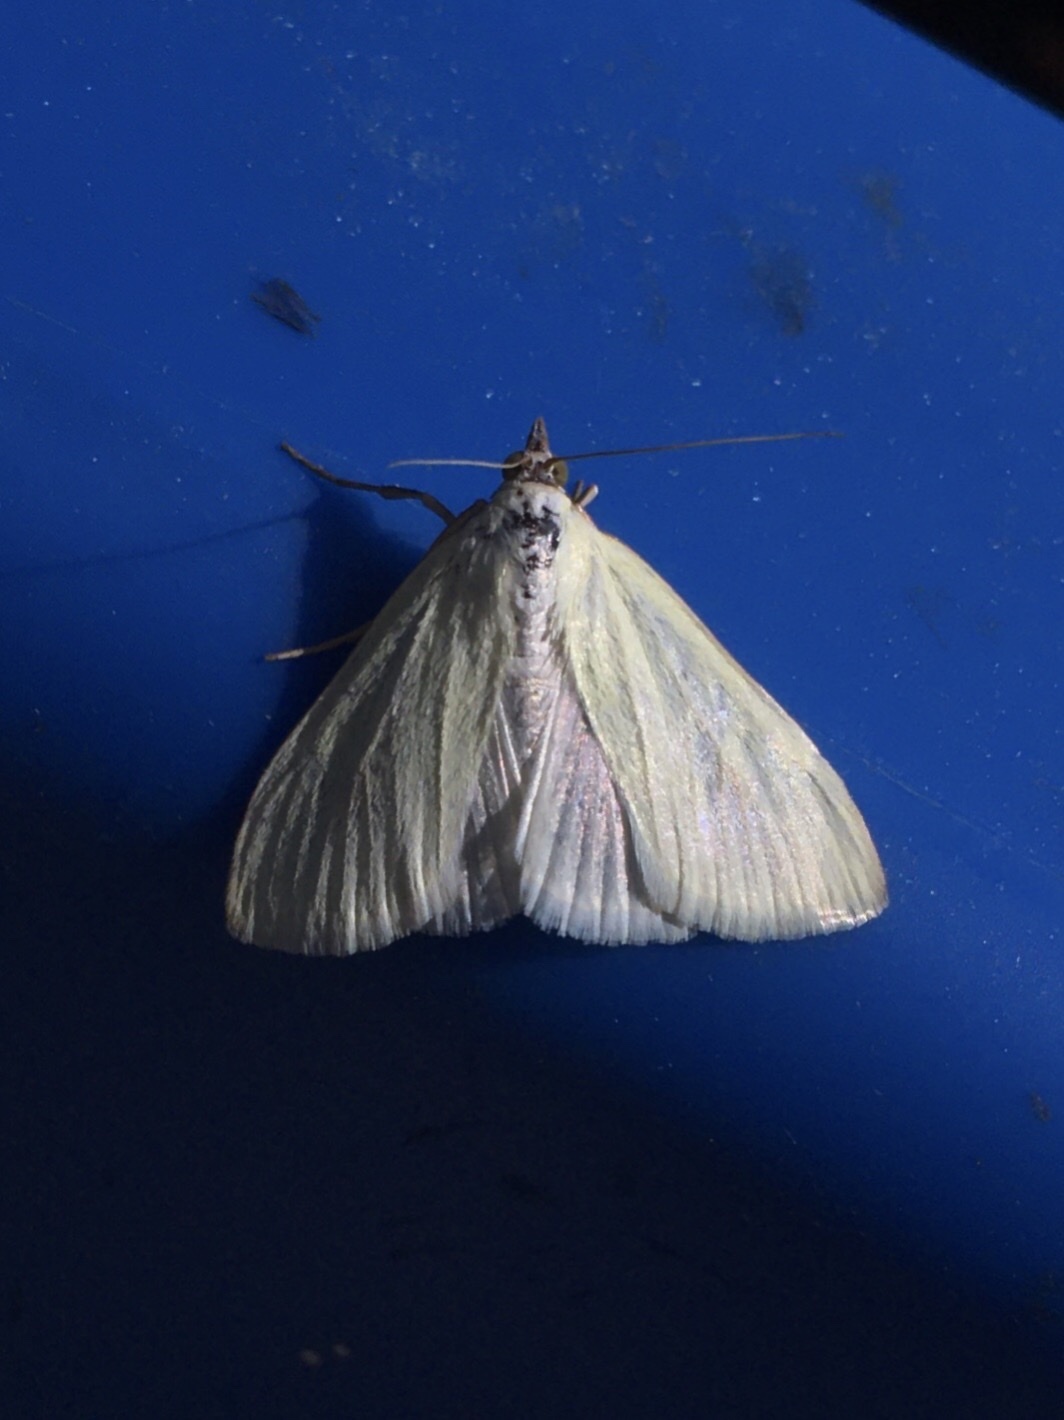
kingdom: Animalia
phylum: Arthropoda
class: Insecta
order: Lepidoptera
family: Crambidae
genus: Sitochroa
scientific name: Sitochroa palealis
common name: Greenish-yellow sitochroa moth
